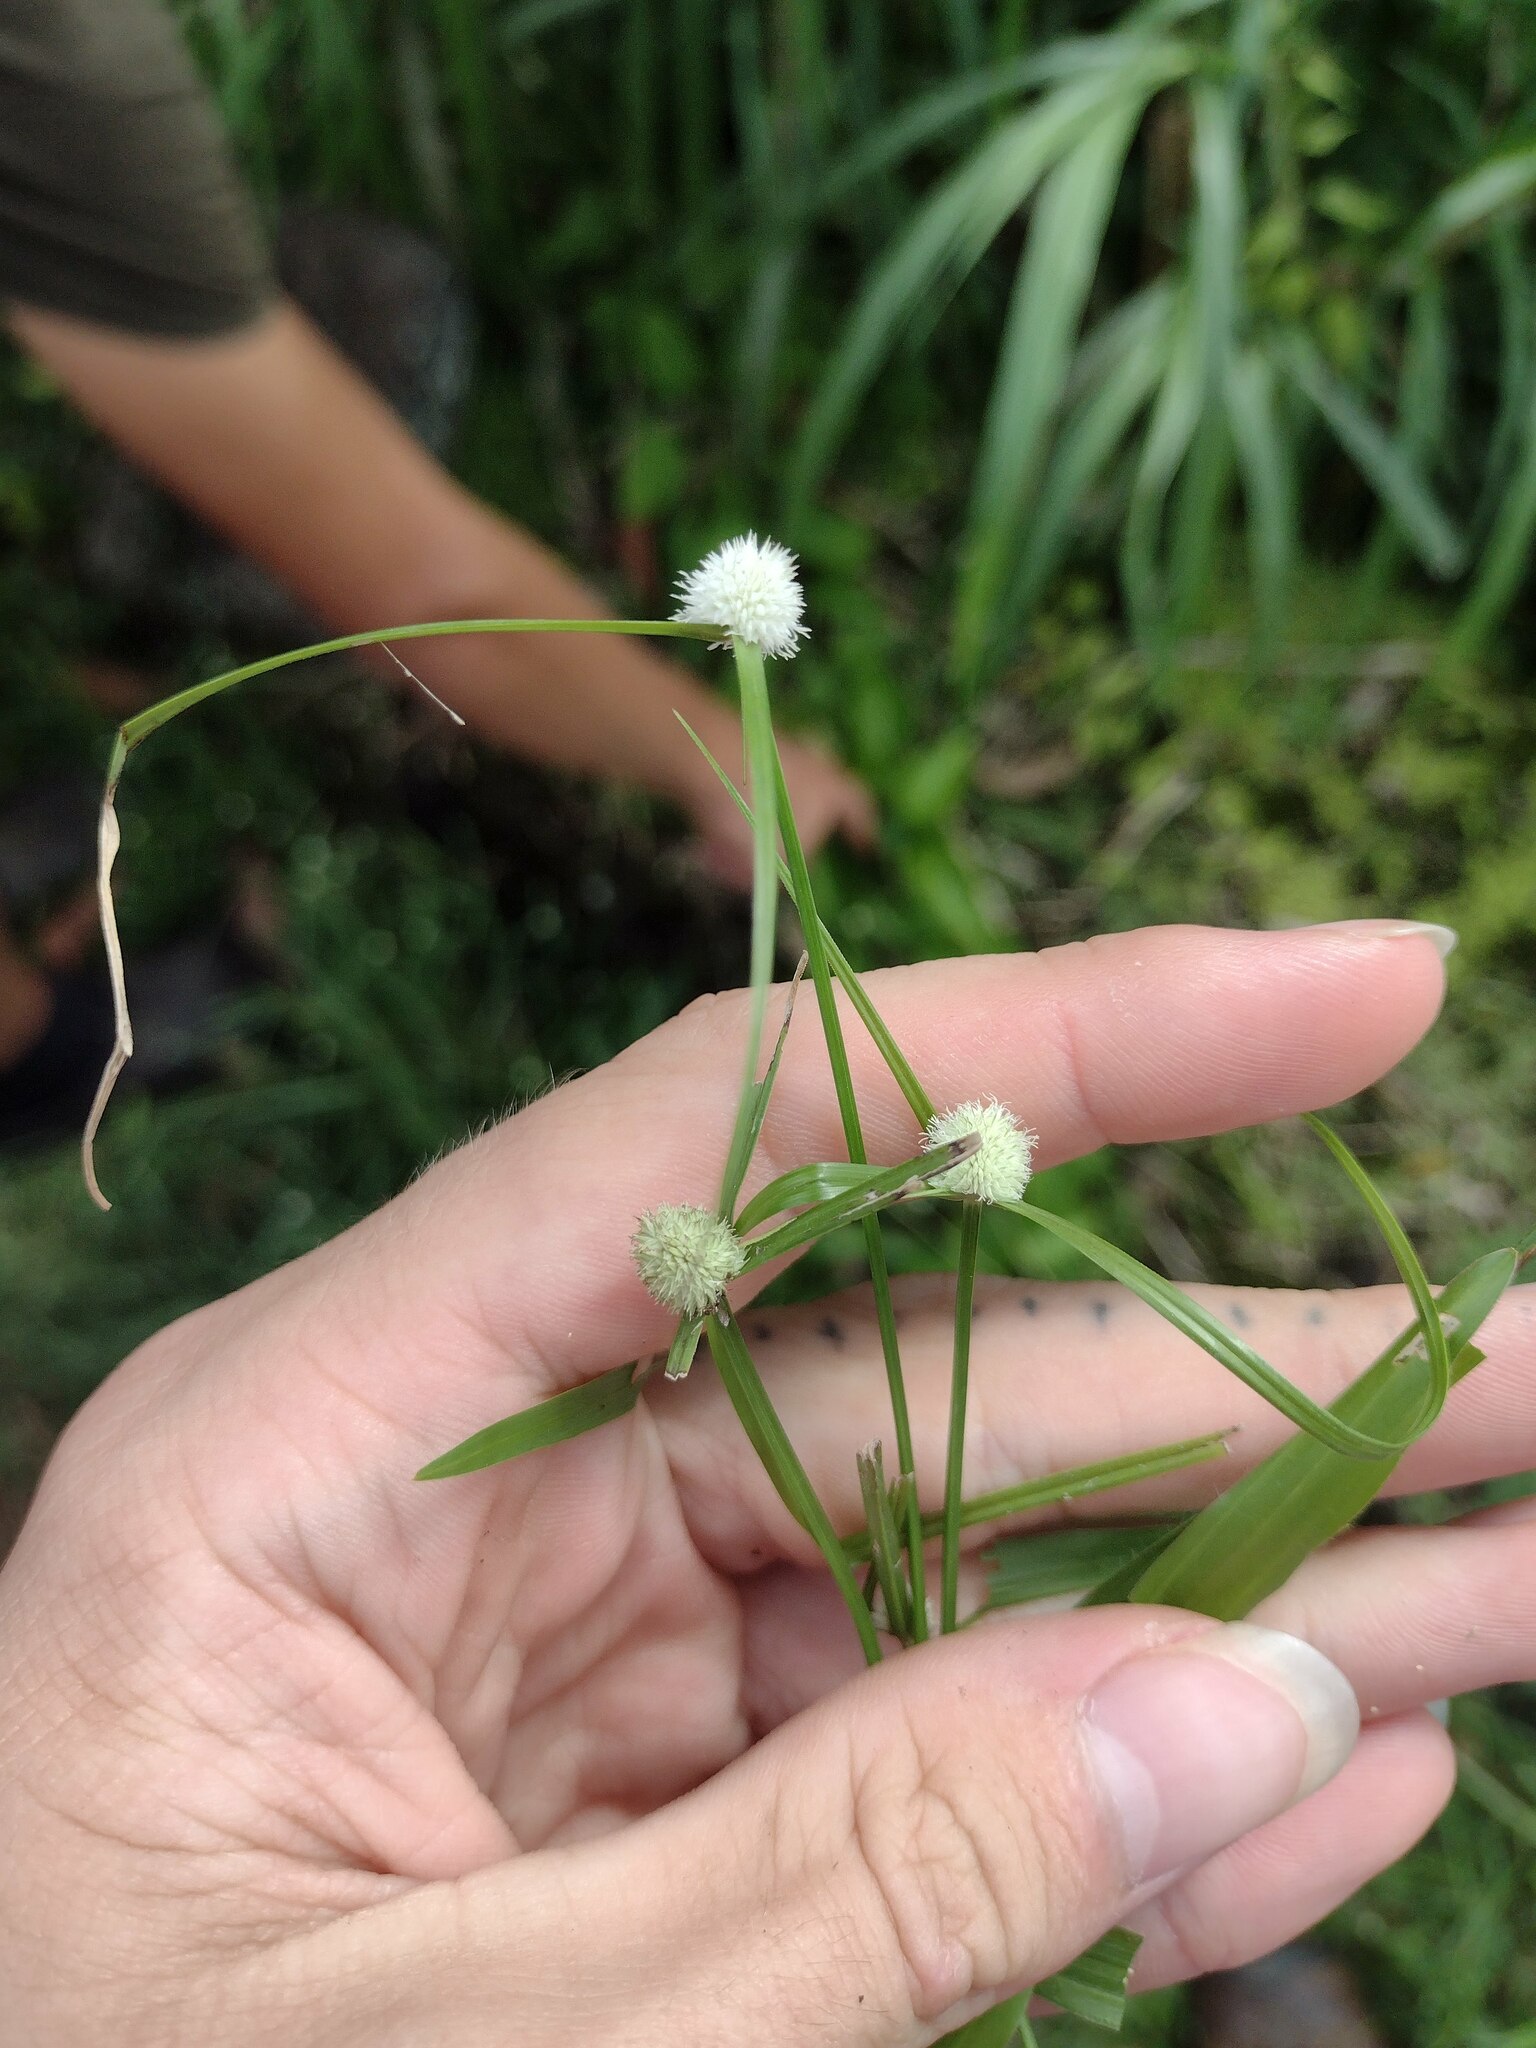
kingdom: Plantae
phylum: Tracheophyta
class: Liliopsida
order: Poales
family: Cyperaceae
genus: Cyperus
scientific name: Cyperus mindorensis
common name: Flatsedge
